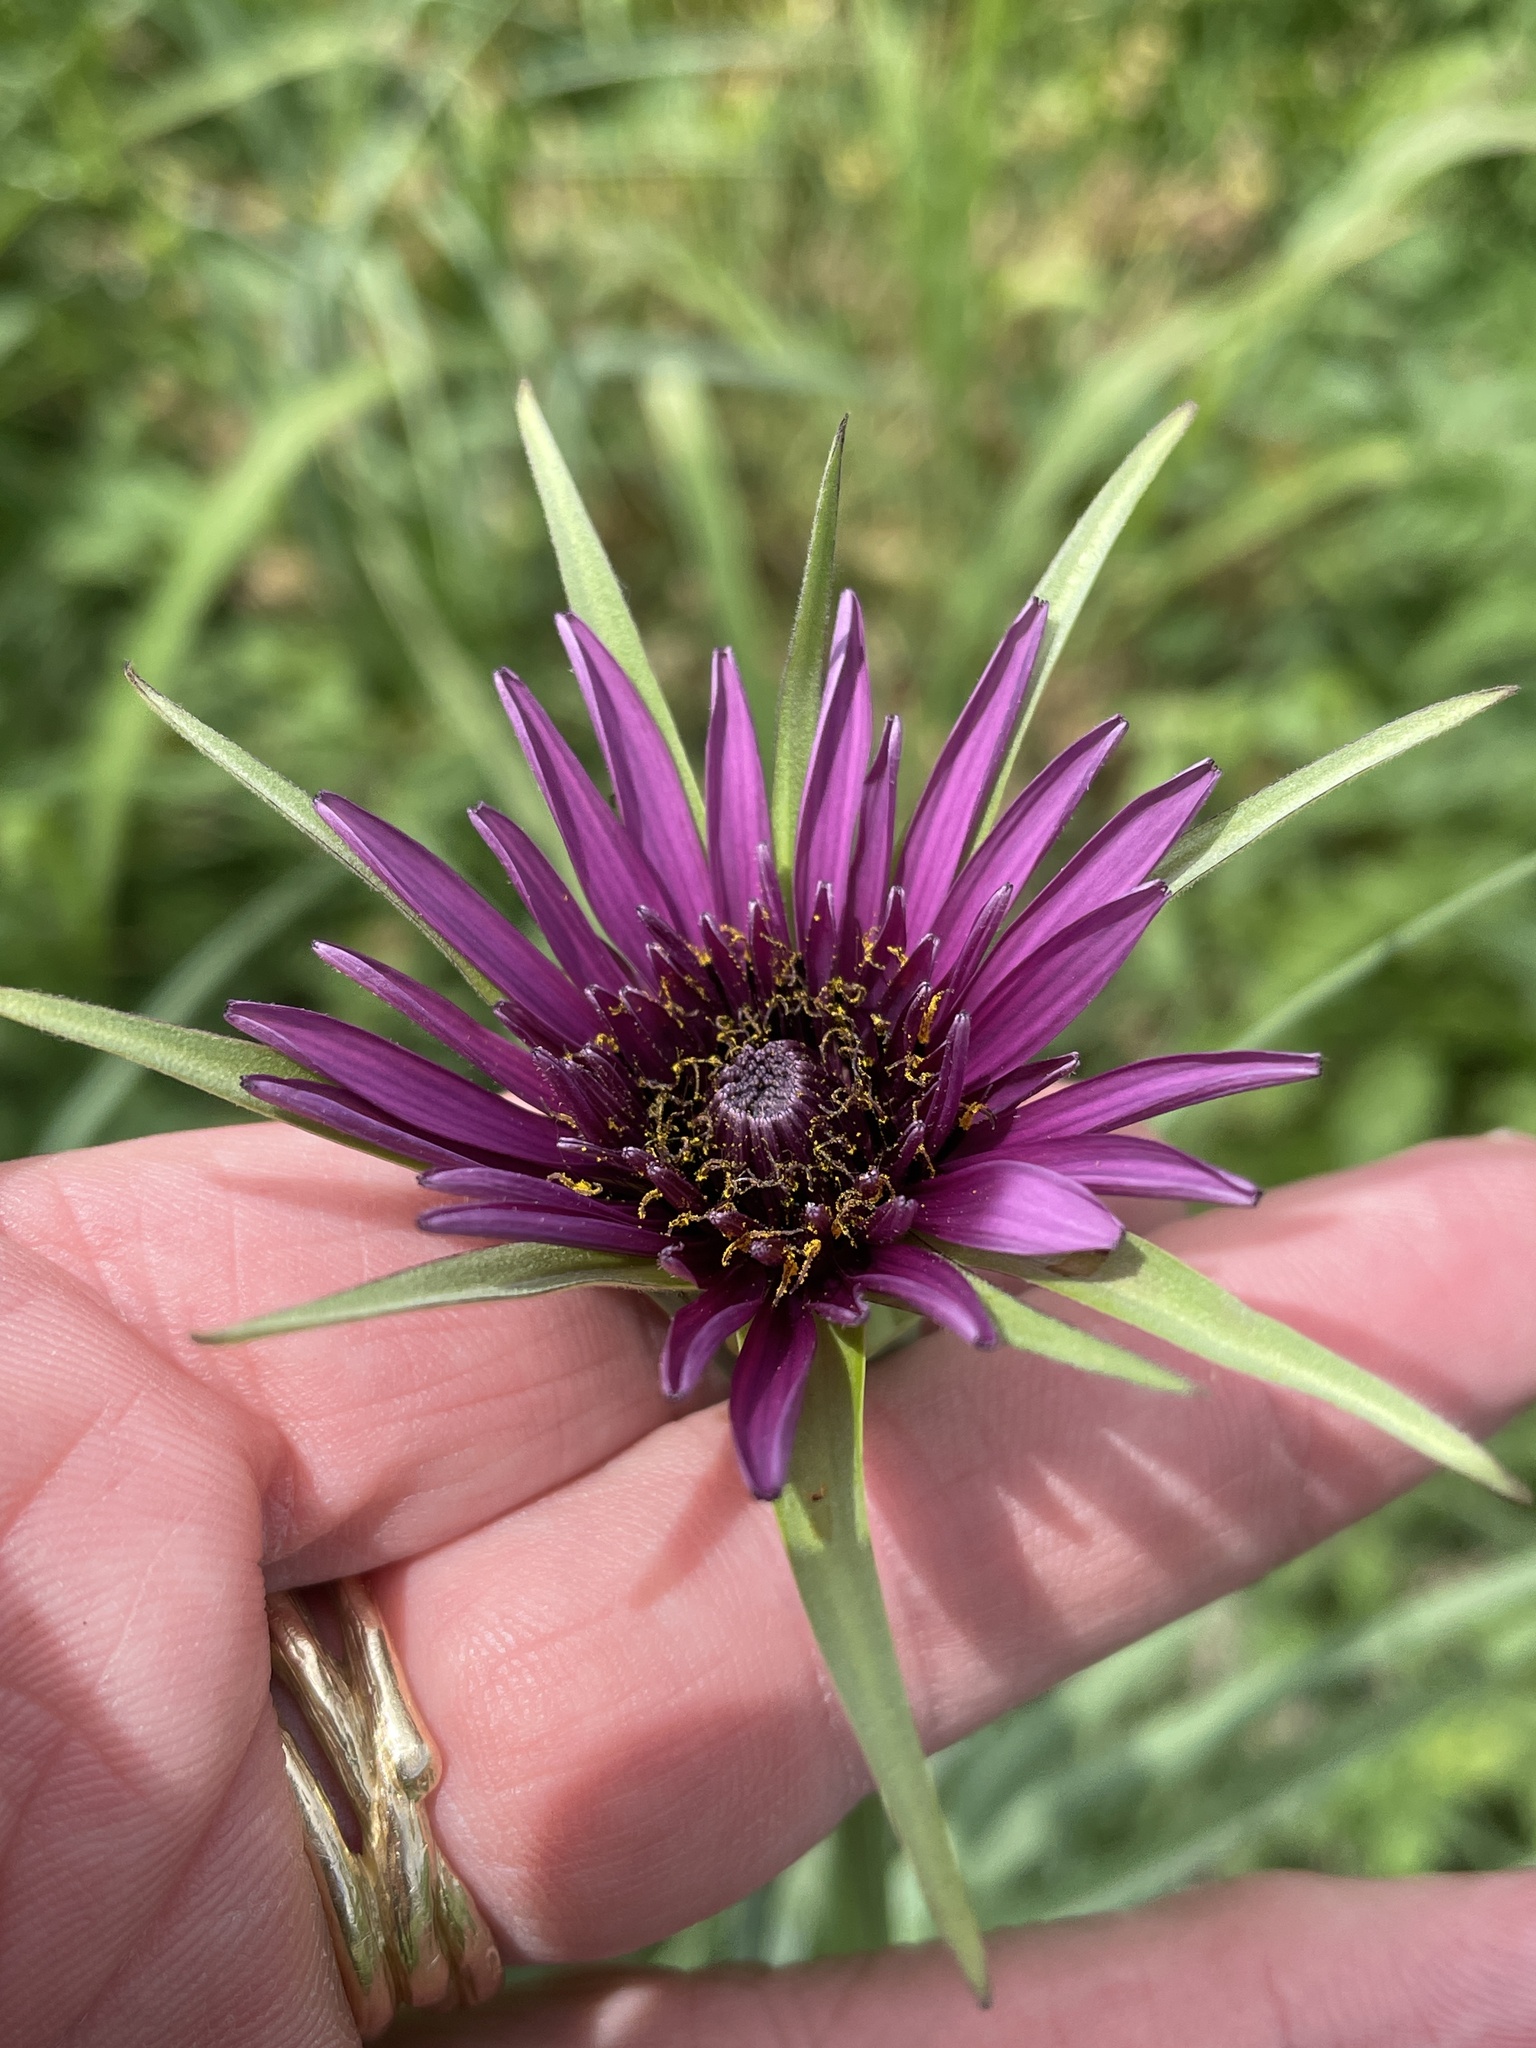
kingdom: Plantae
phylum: Tracheophyta
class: Magnoliopsida
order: Asterales
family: Asteraceae
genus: Tragopogon
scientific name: Tragopogon porrifolius
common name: Salsify
